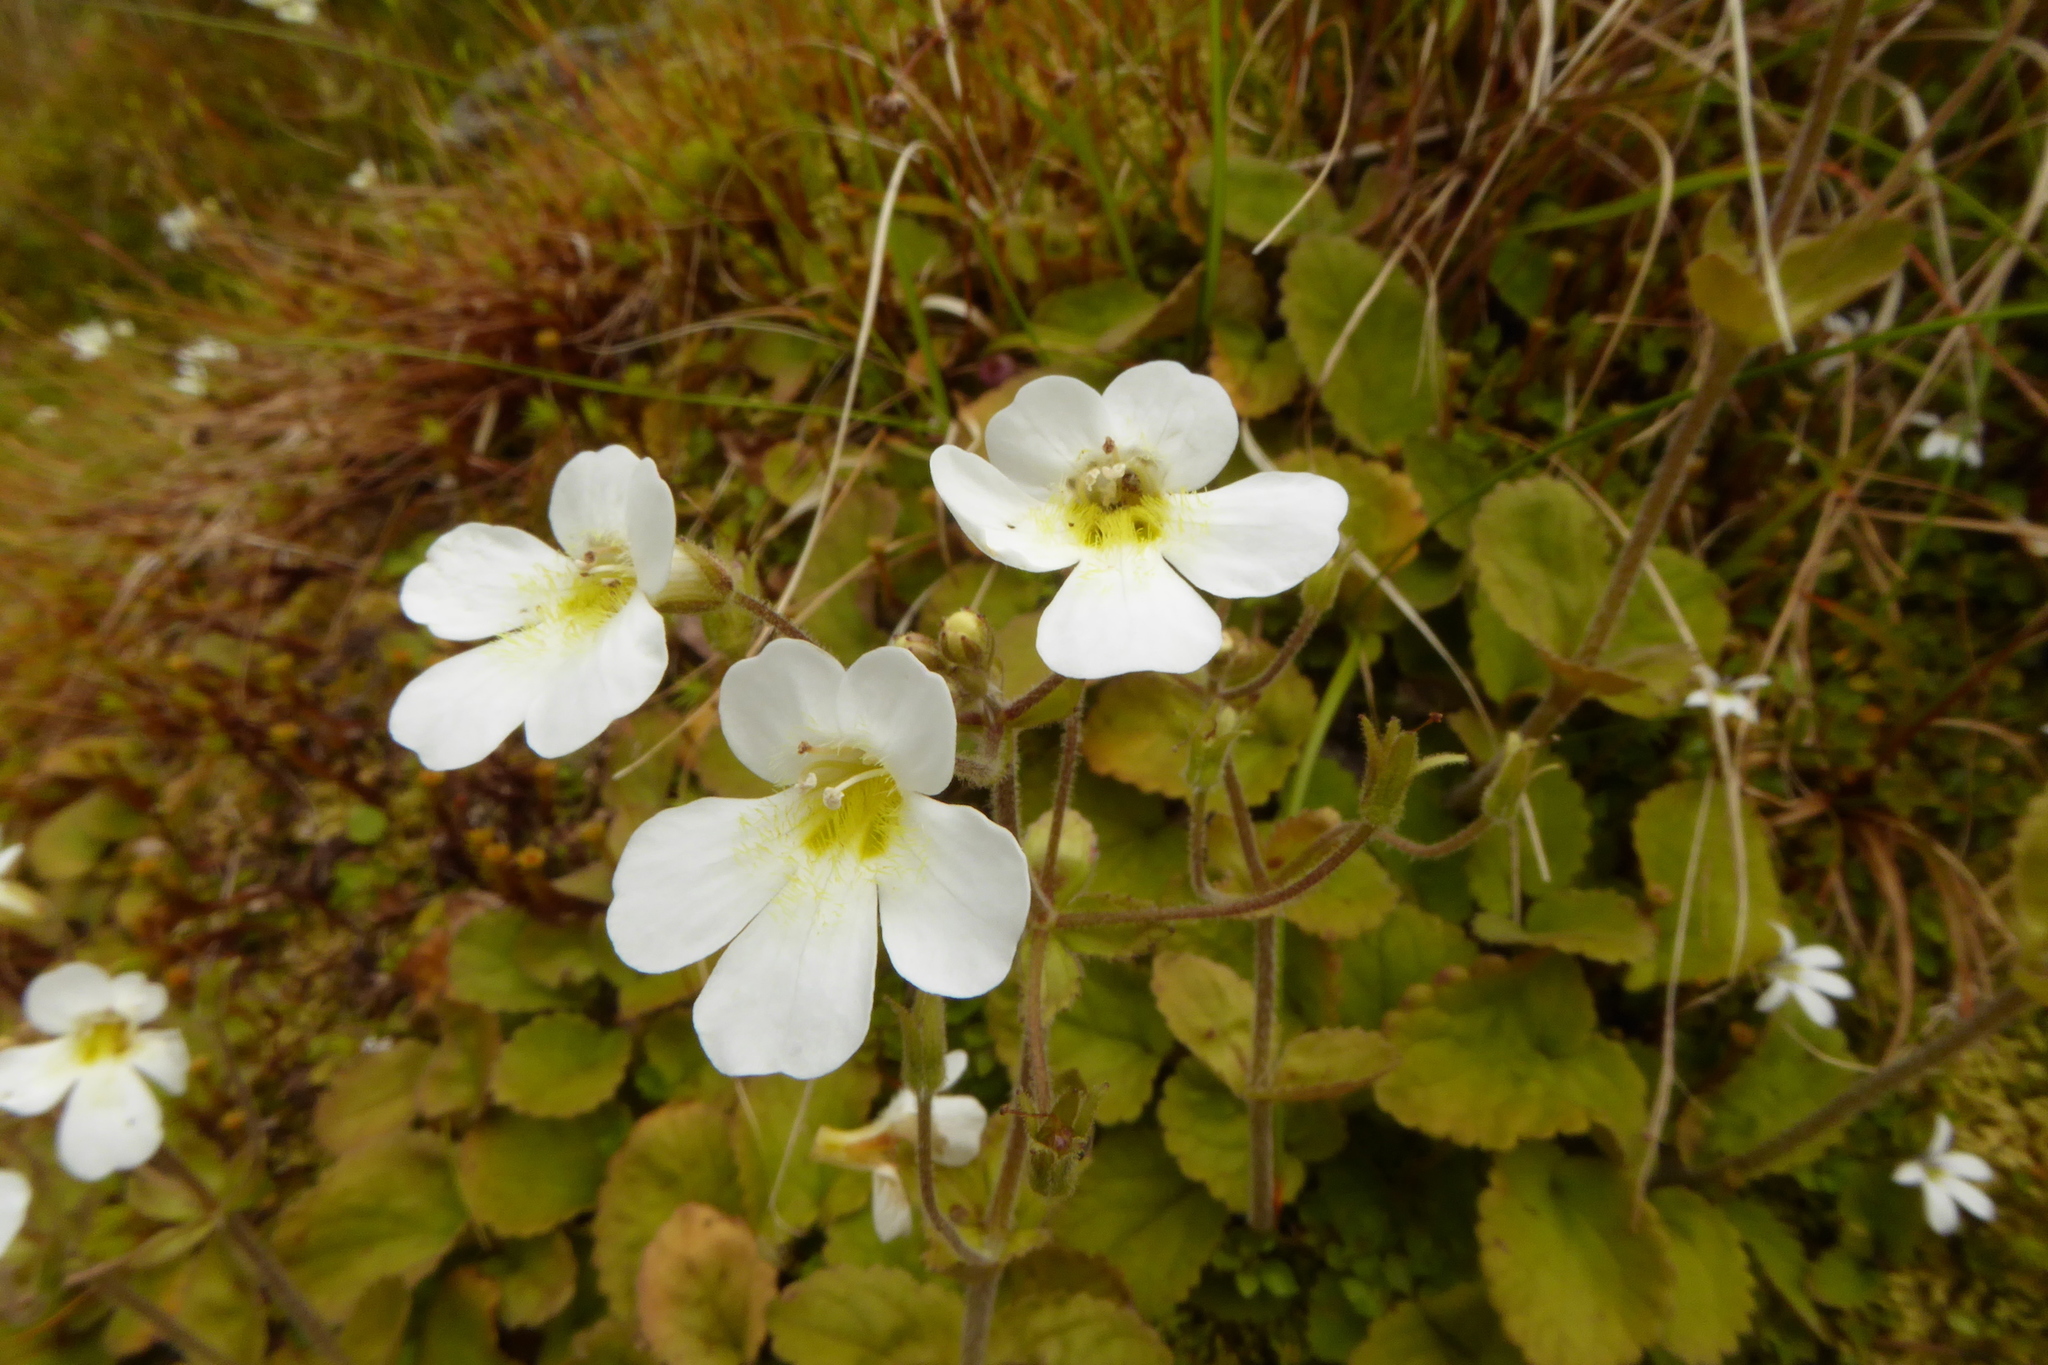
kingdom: Plantae
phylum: Tracheophyta
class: Magnoliopsida
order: Lamiales
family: Plantaginaceae
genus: Ourisia
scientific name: Ourisia macrophylla
